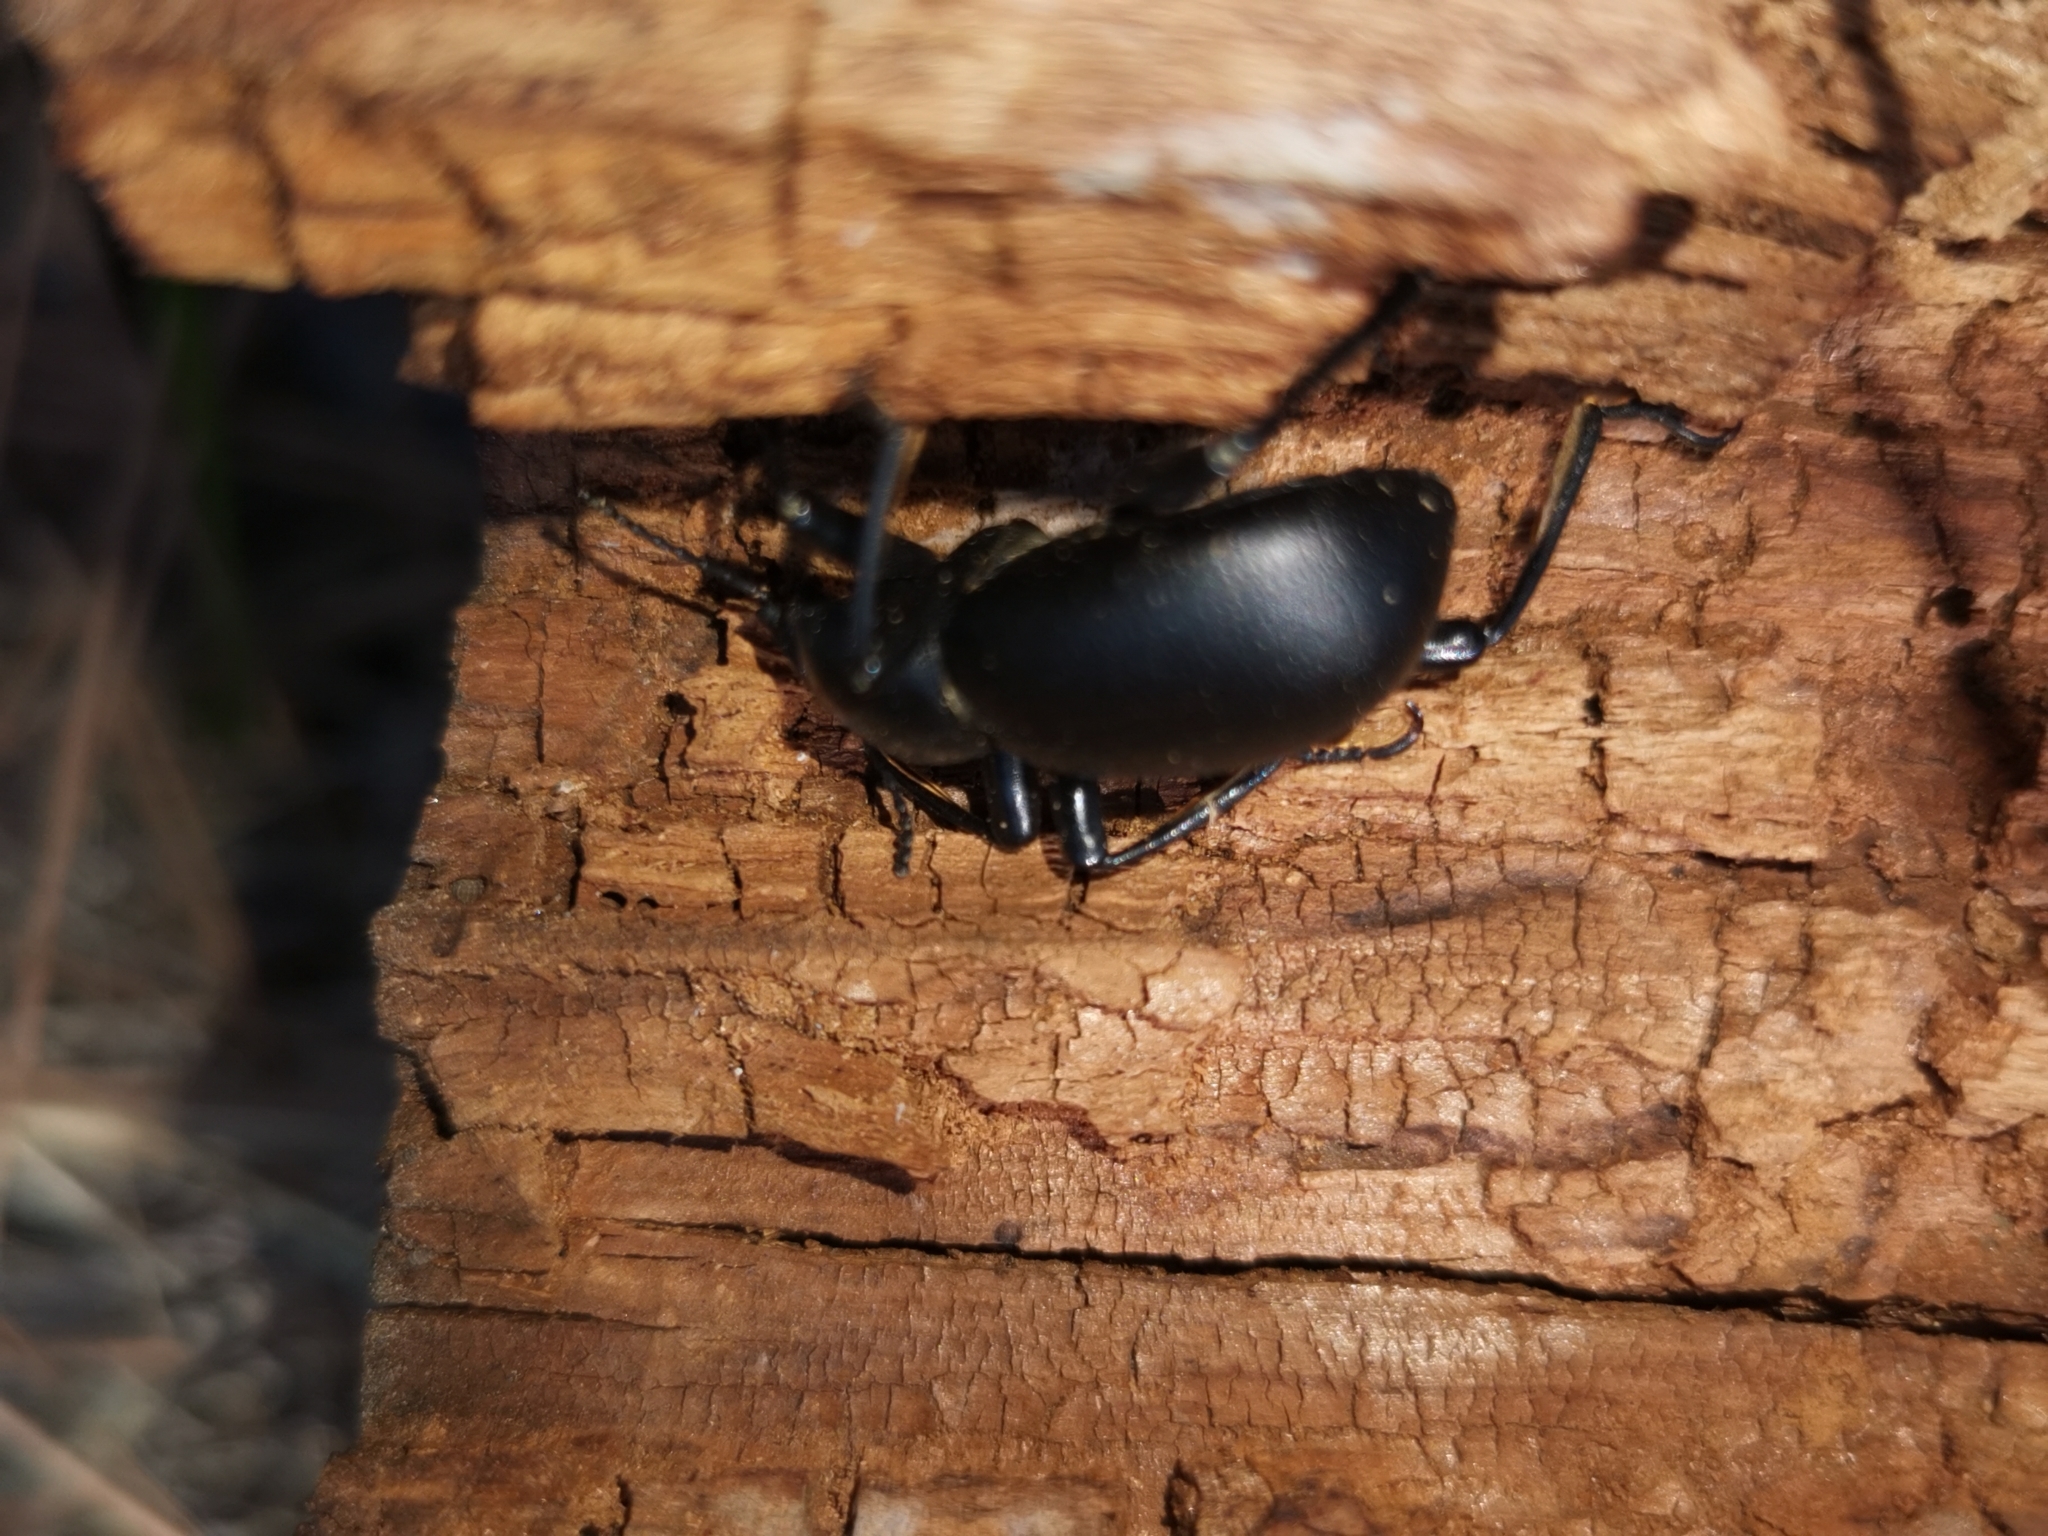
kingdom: Animalia
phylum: Arthropoda
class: Insecta
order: Coleoptera
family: Tenebrionidae
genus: Coelocnemis
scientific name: Coelocnemis dilaticollis
